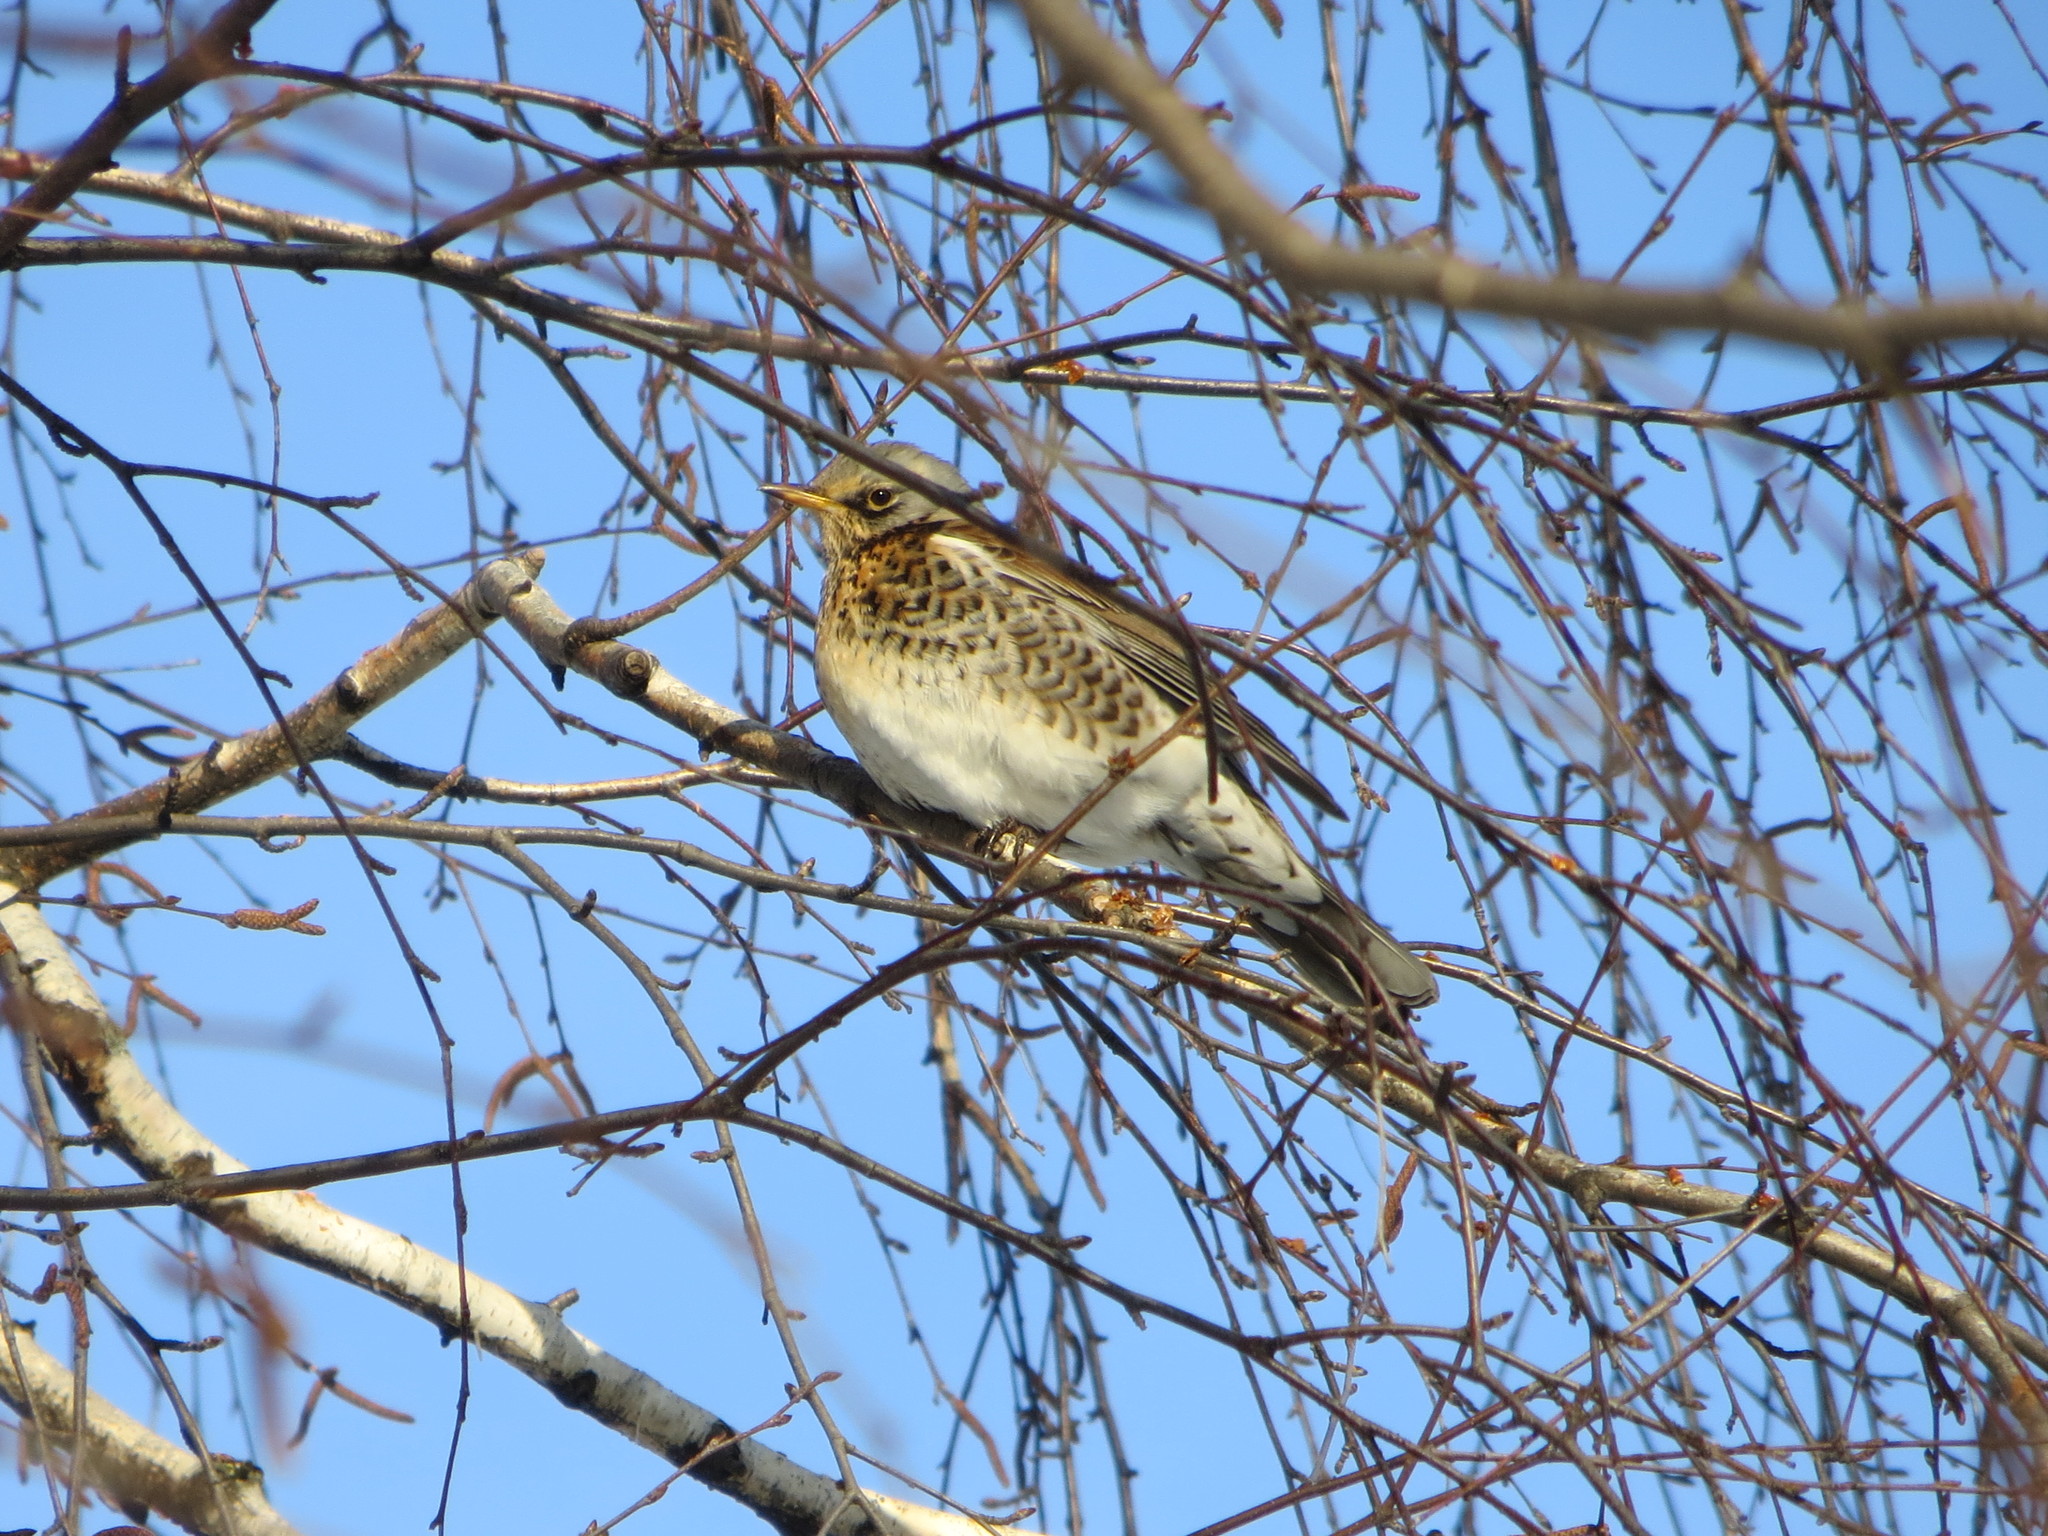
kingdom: Animalia
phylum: Chordata
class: Aves
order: Passeriformes
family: Turdidae
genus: Turdus
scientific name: Turdus pilaris
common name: Fieldfare
